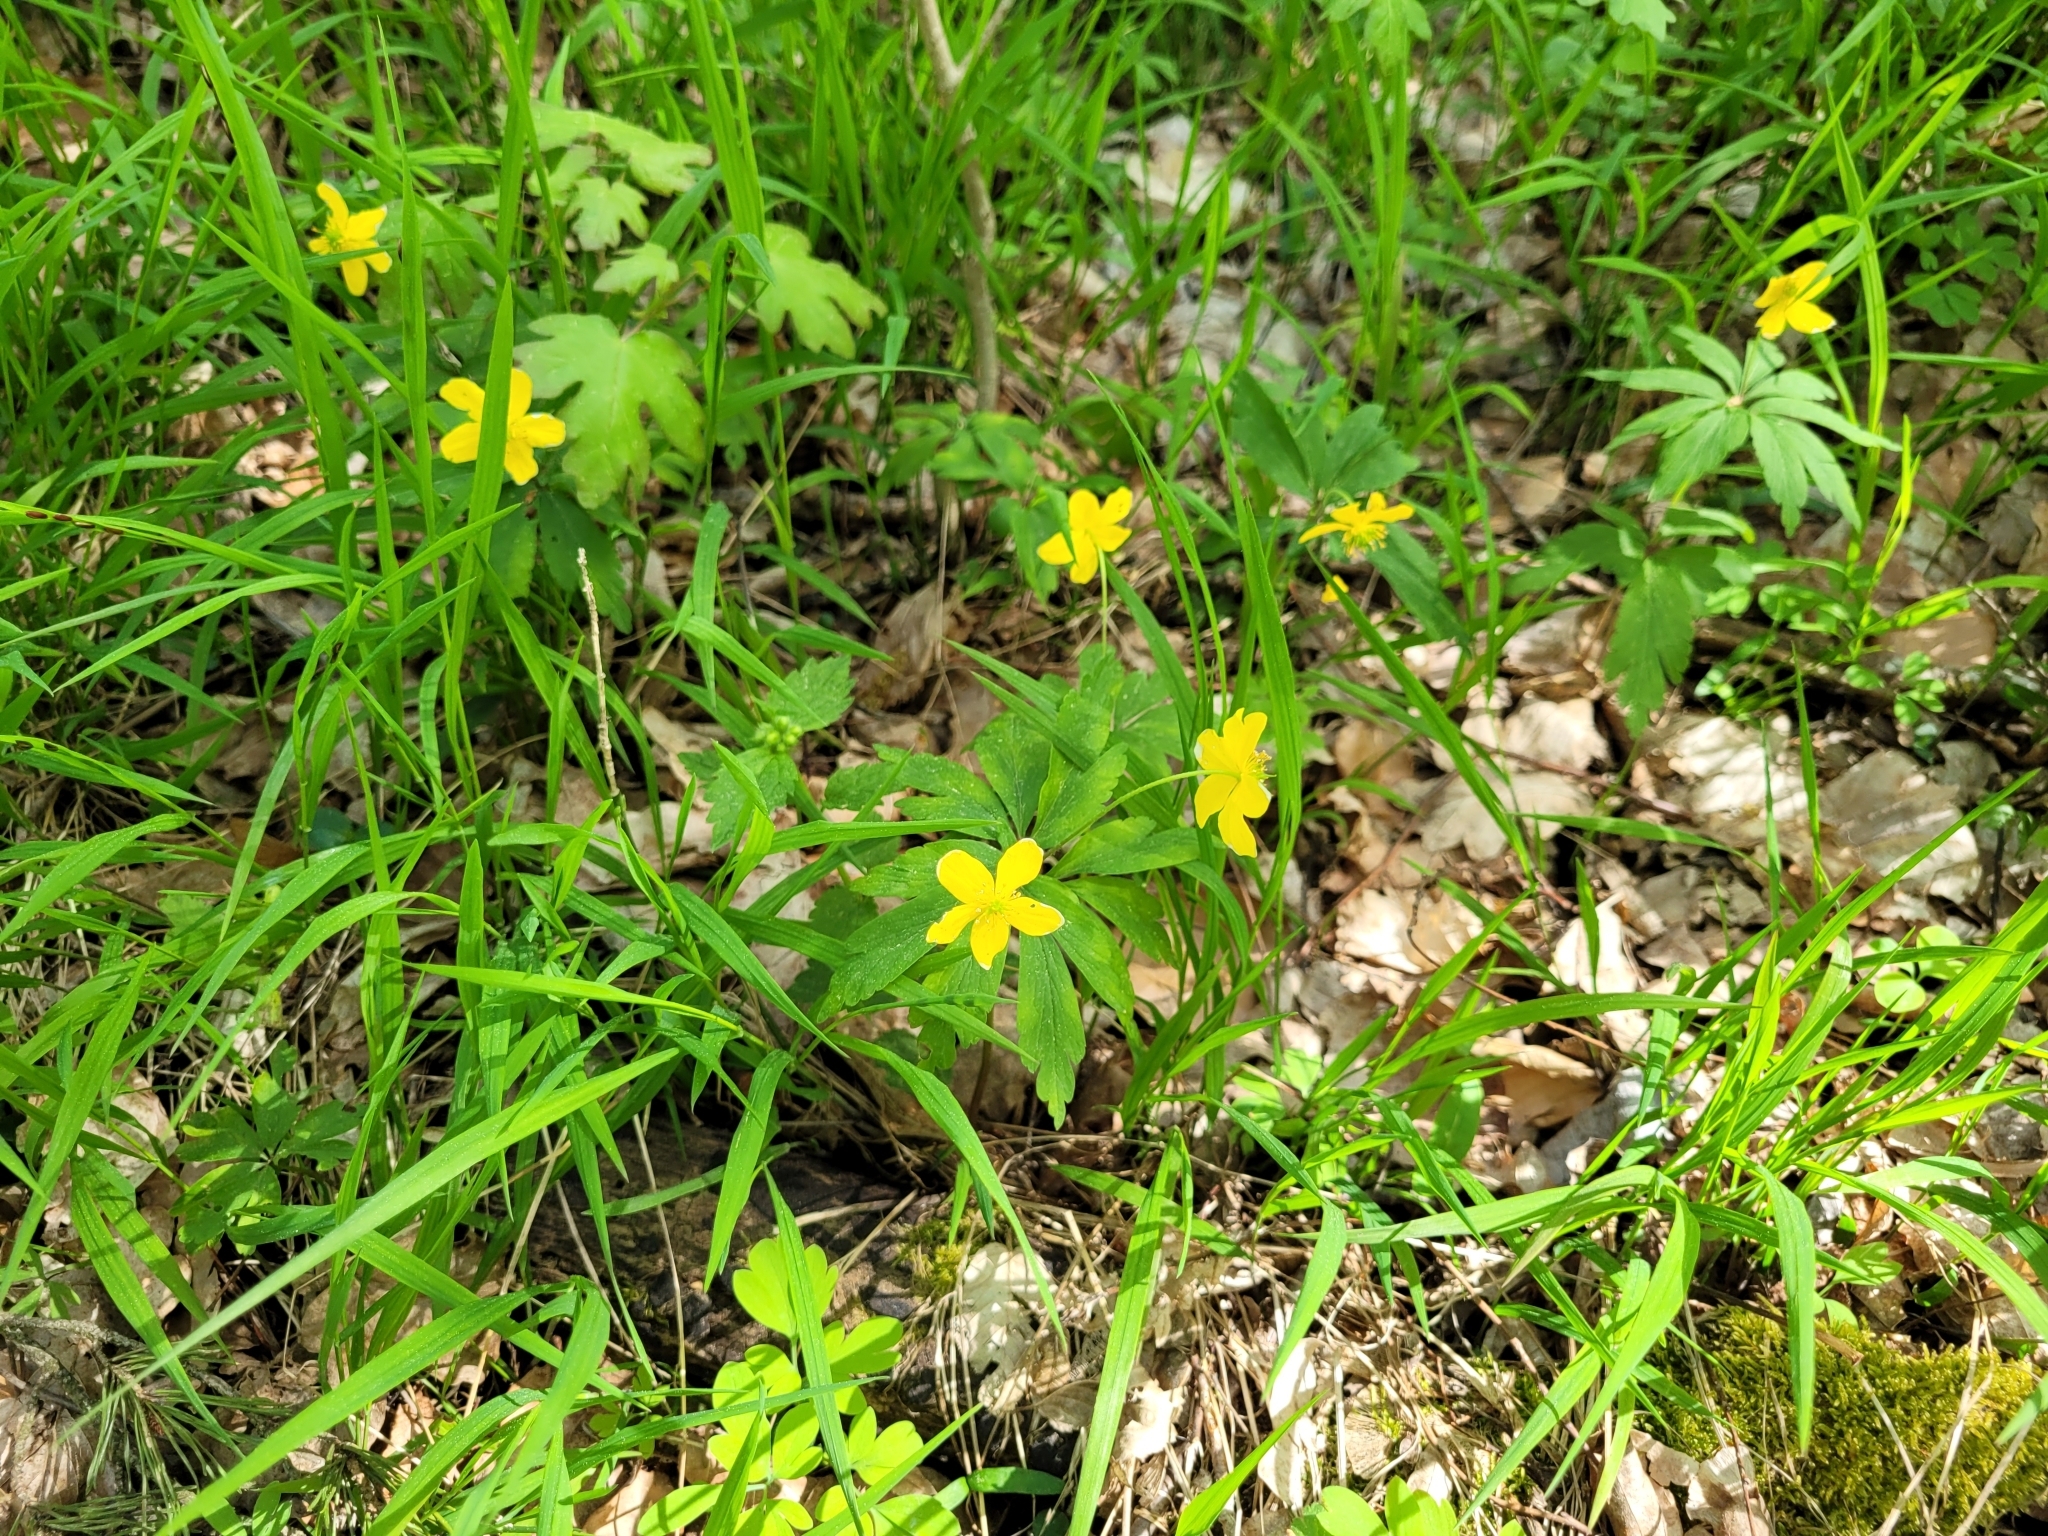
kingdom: Plantae
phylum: Tracheophyta
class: Magnoliopsida
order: Ranunculales
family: Ranunculaceae
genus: Anemone
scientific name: Anemone ranunculoides
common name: Yellow anemone
